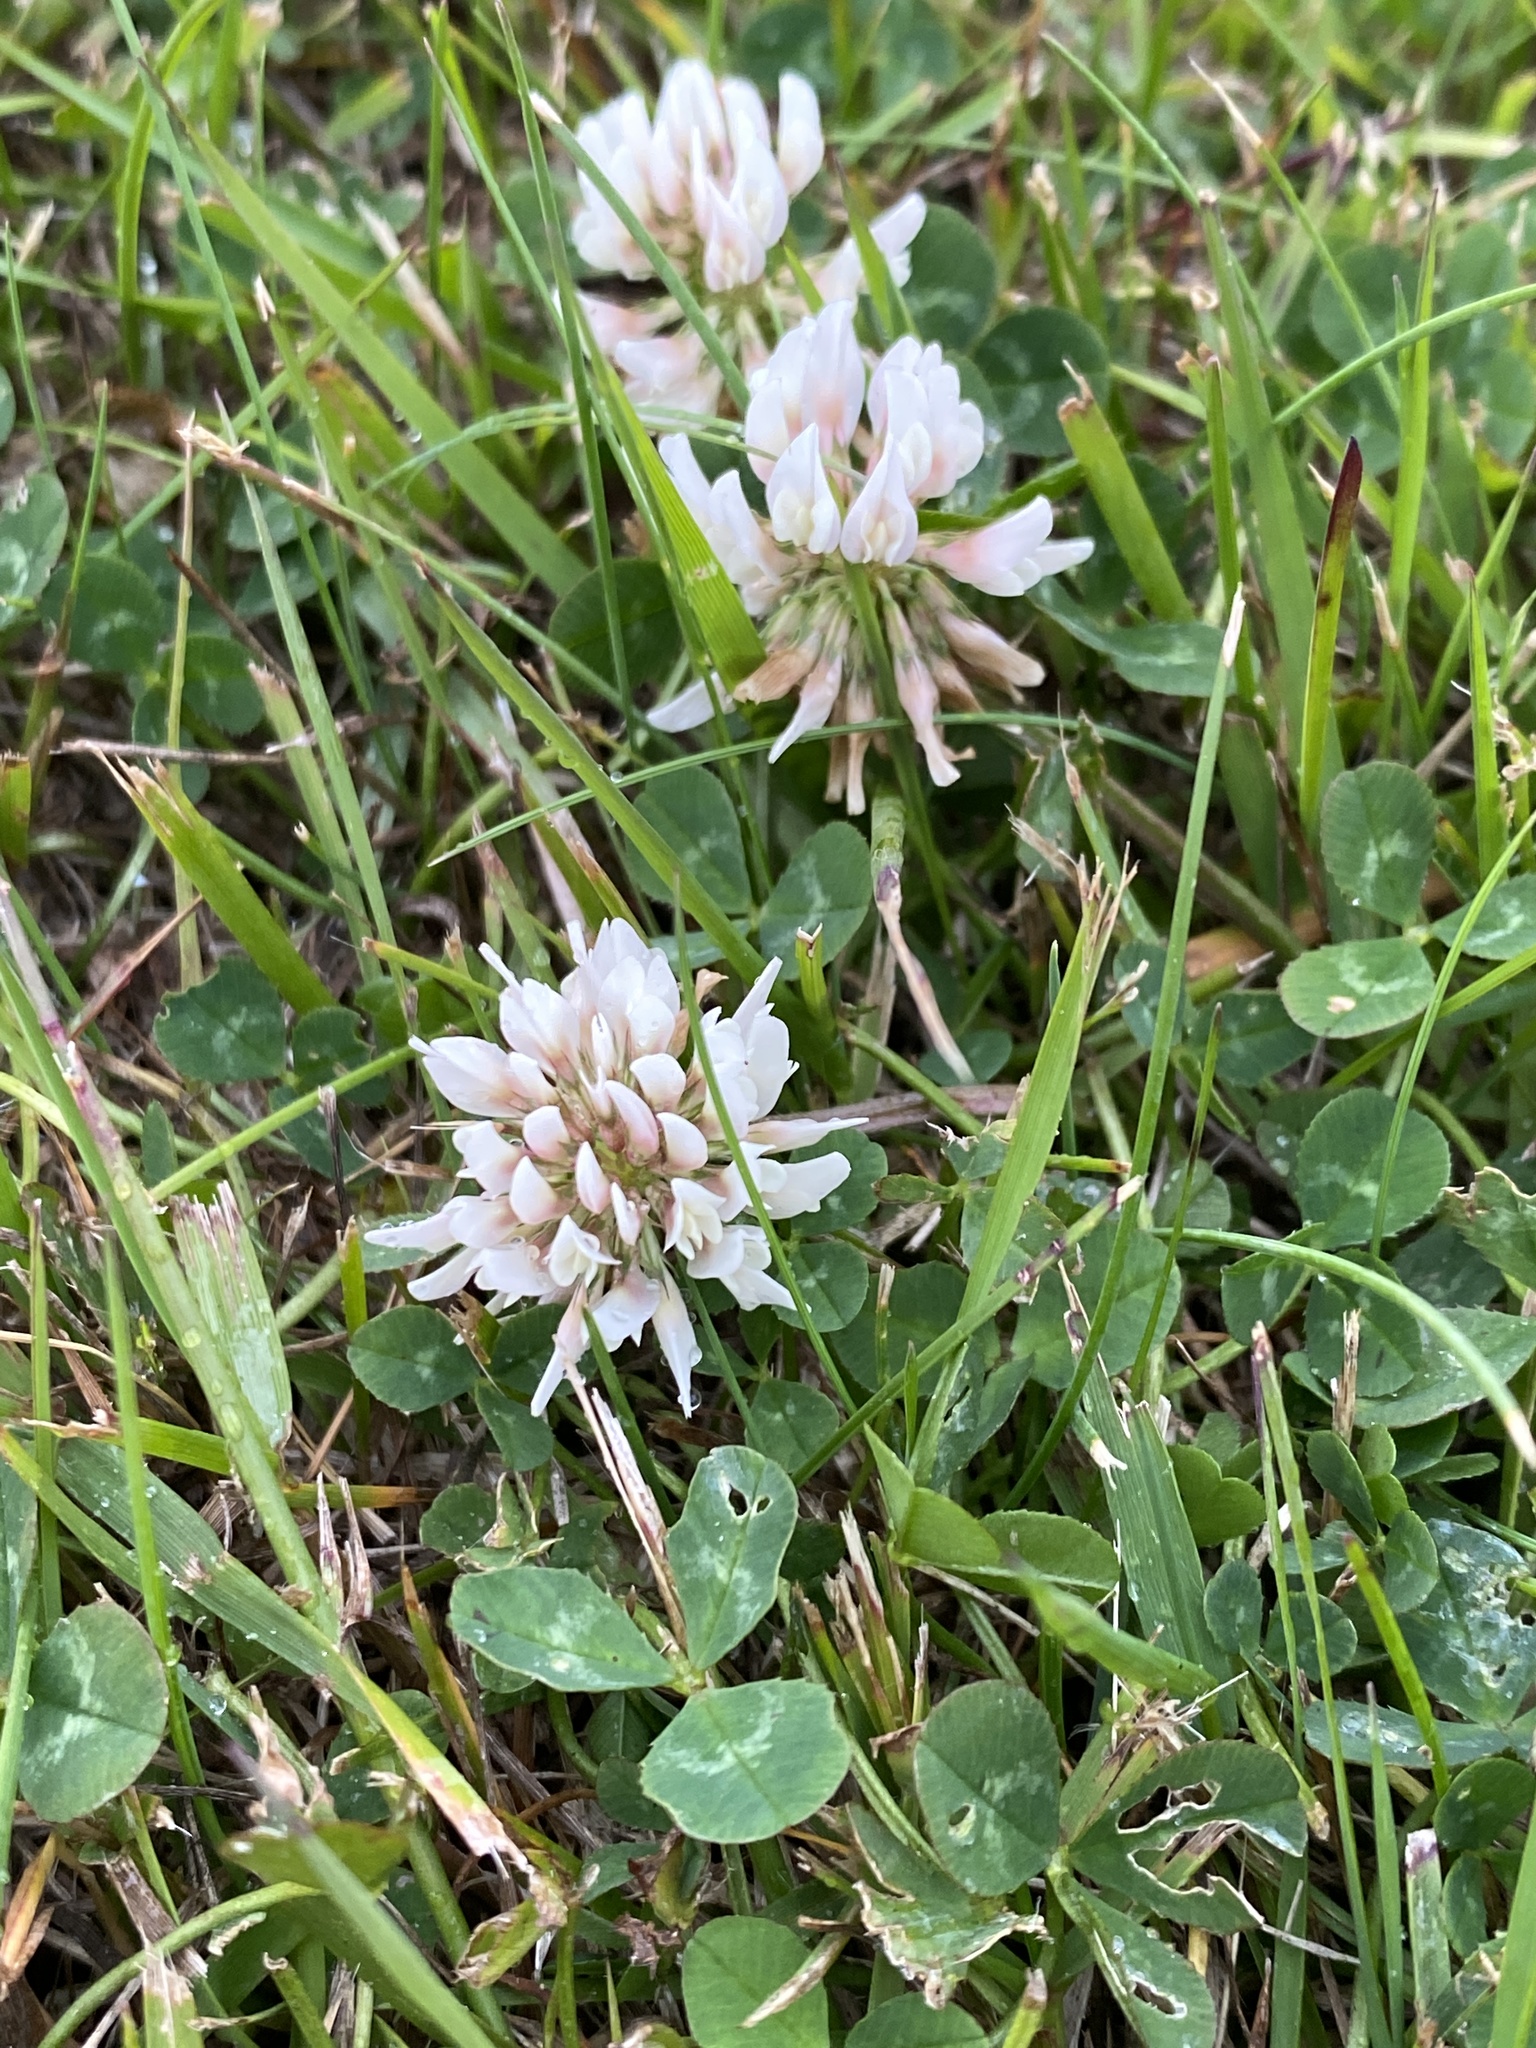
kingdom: Plantae
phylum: Tracheophyta
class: Magnoliopsida
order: Fabales
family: Fabaceae
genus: Trifolium
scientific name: Trifolium repens
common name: White clover
